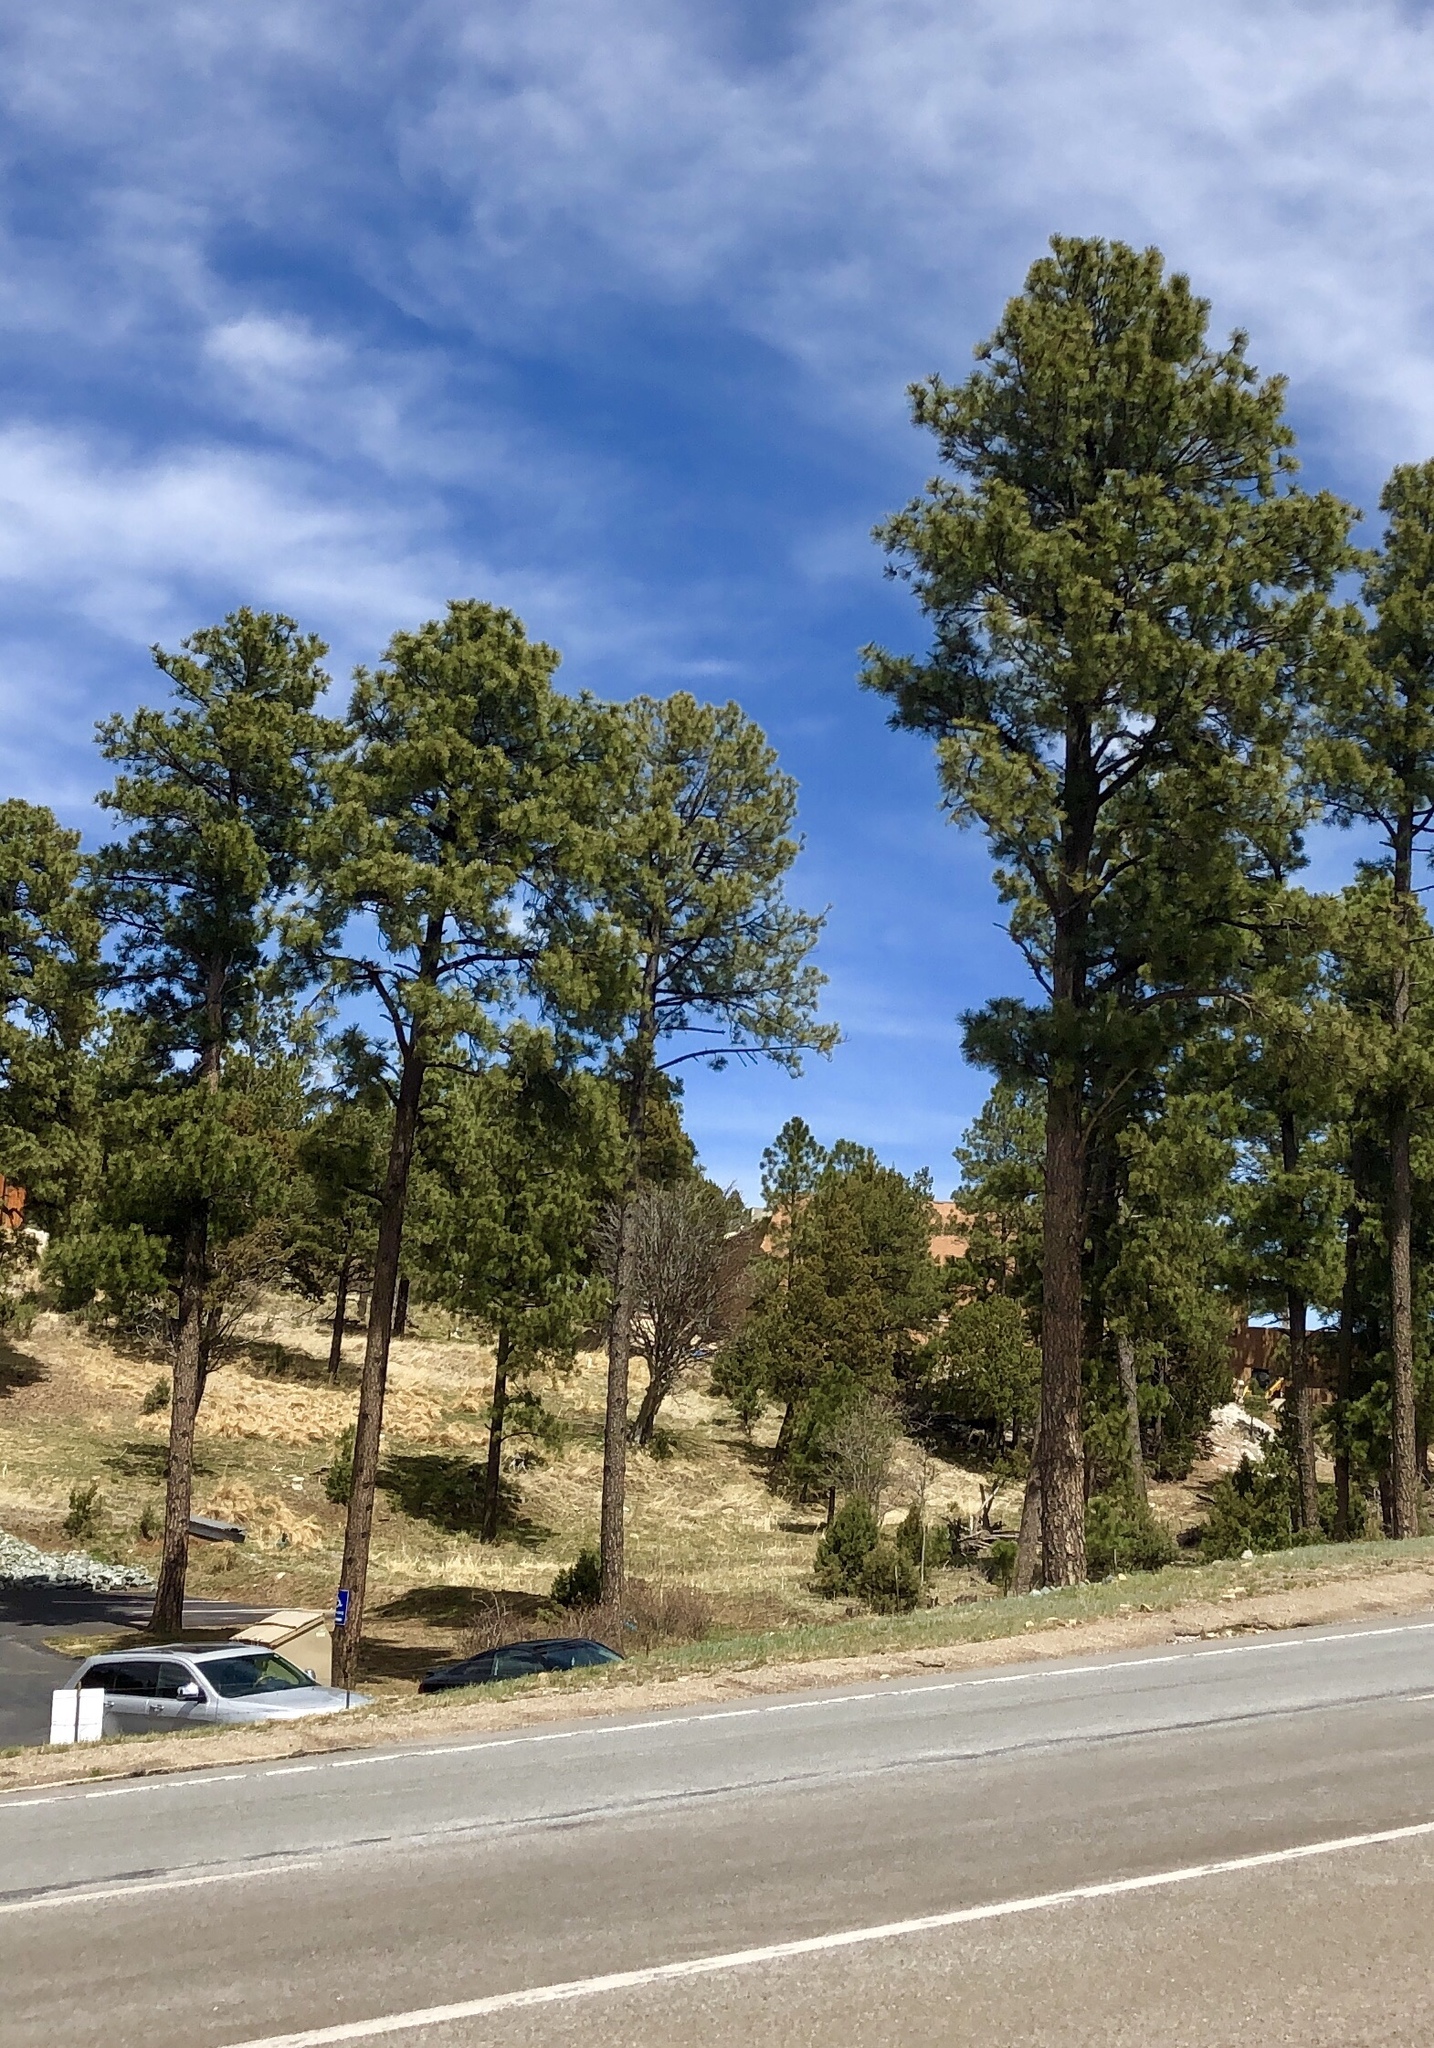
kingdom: Plantae
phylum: Tracheophyta
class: Pinopsida
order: Pinales
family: Pinaceae
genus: Pinus
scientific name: Pinus ponderosa
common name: Western yellow-pine
